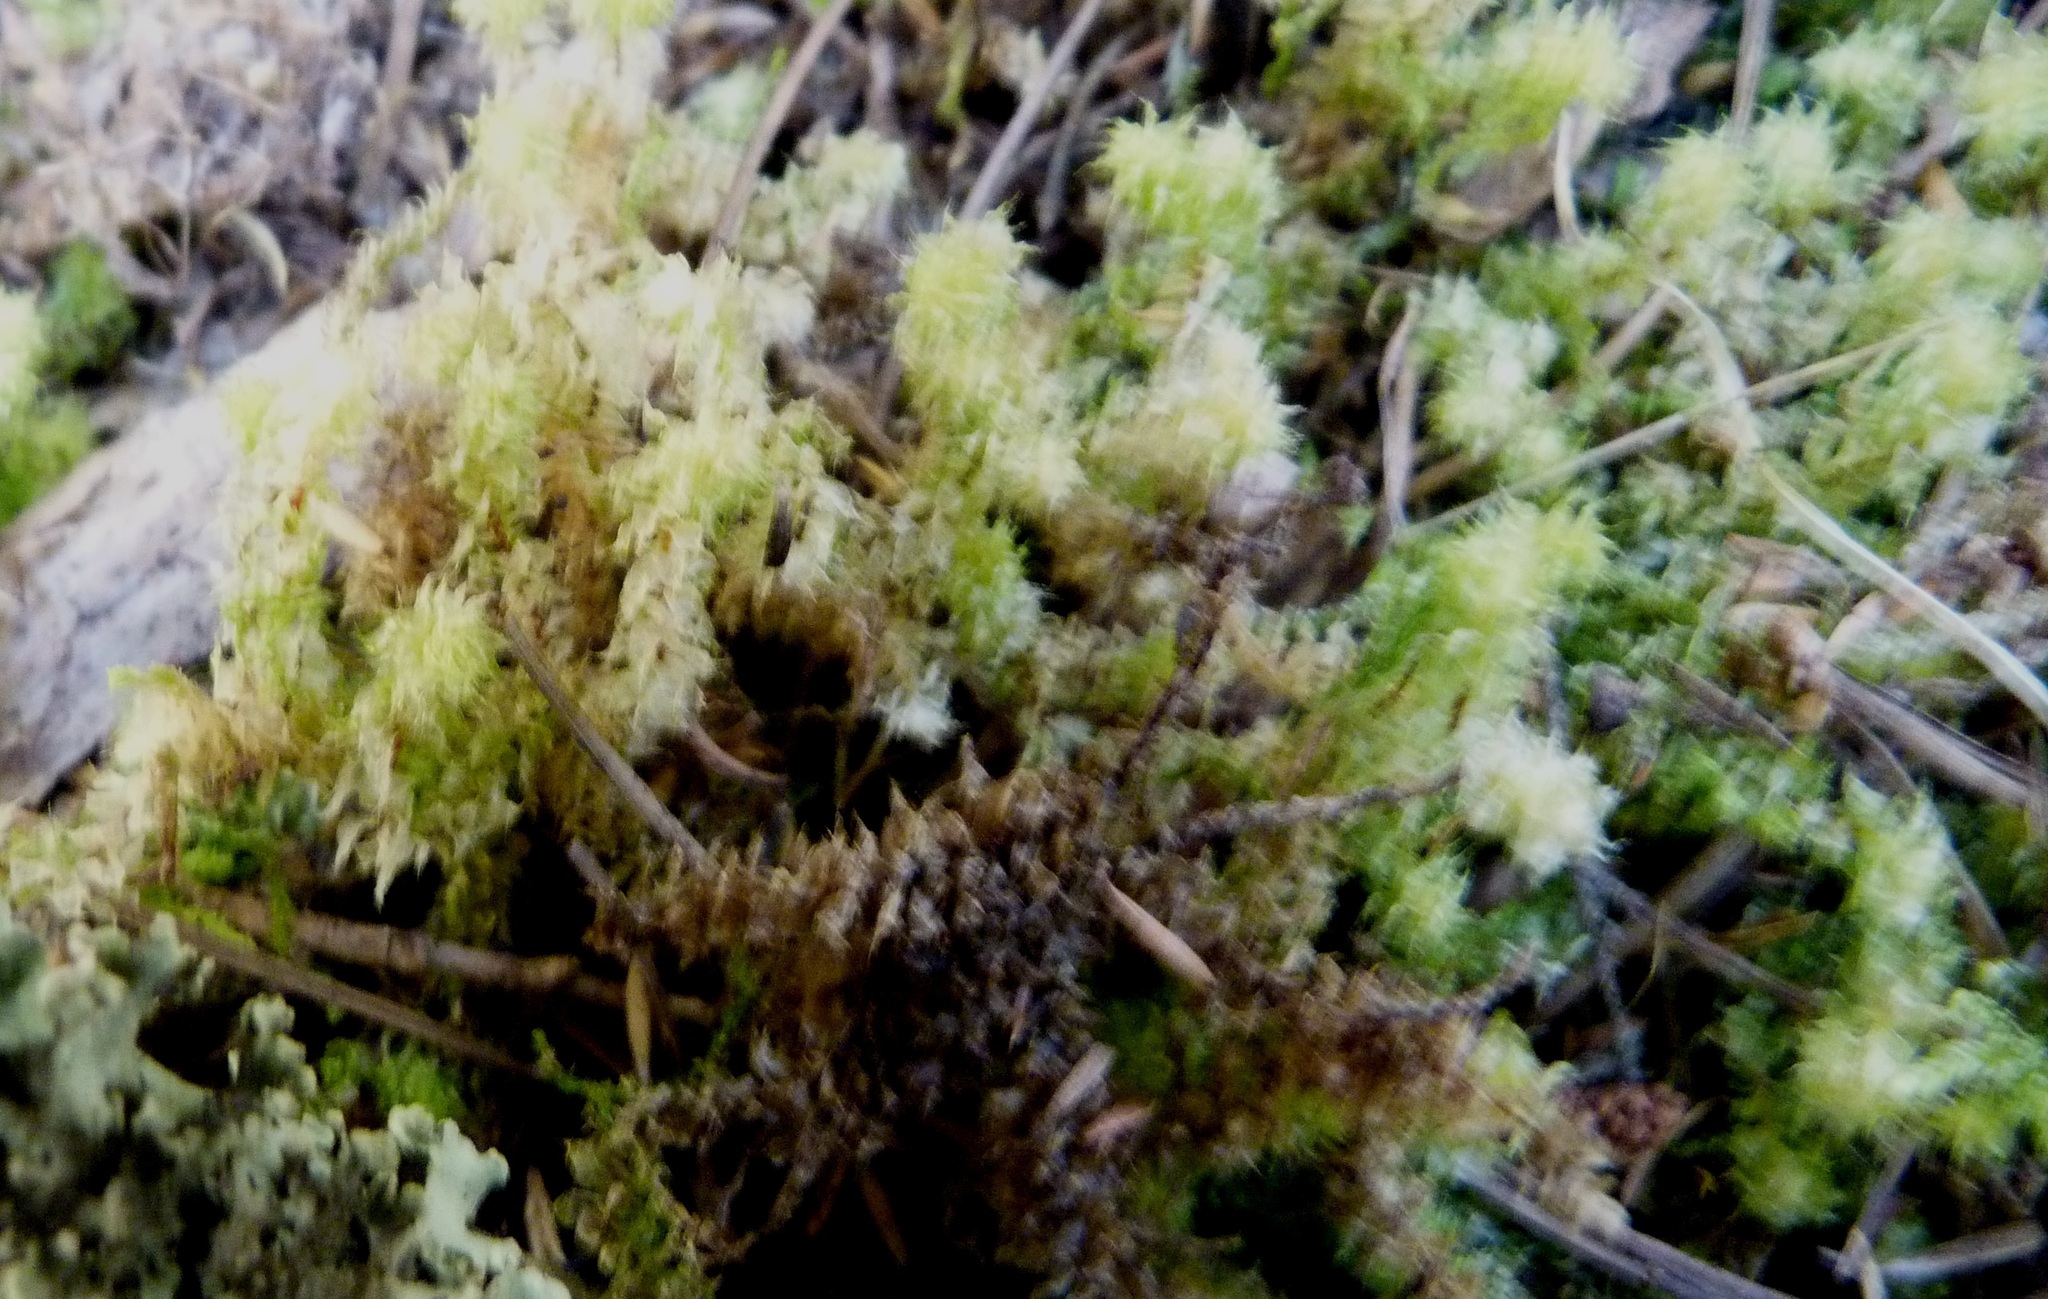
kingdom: Plantae
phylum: Bryophyta
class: Bryopsida
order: Ptychomniales
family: Ptychomniaceae
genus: Ptychomnion
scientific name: Ptychomnion aciculare
